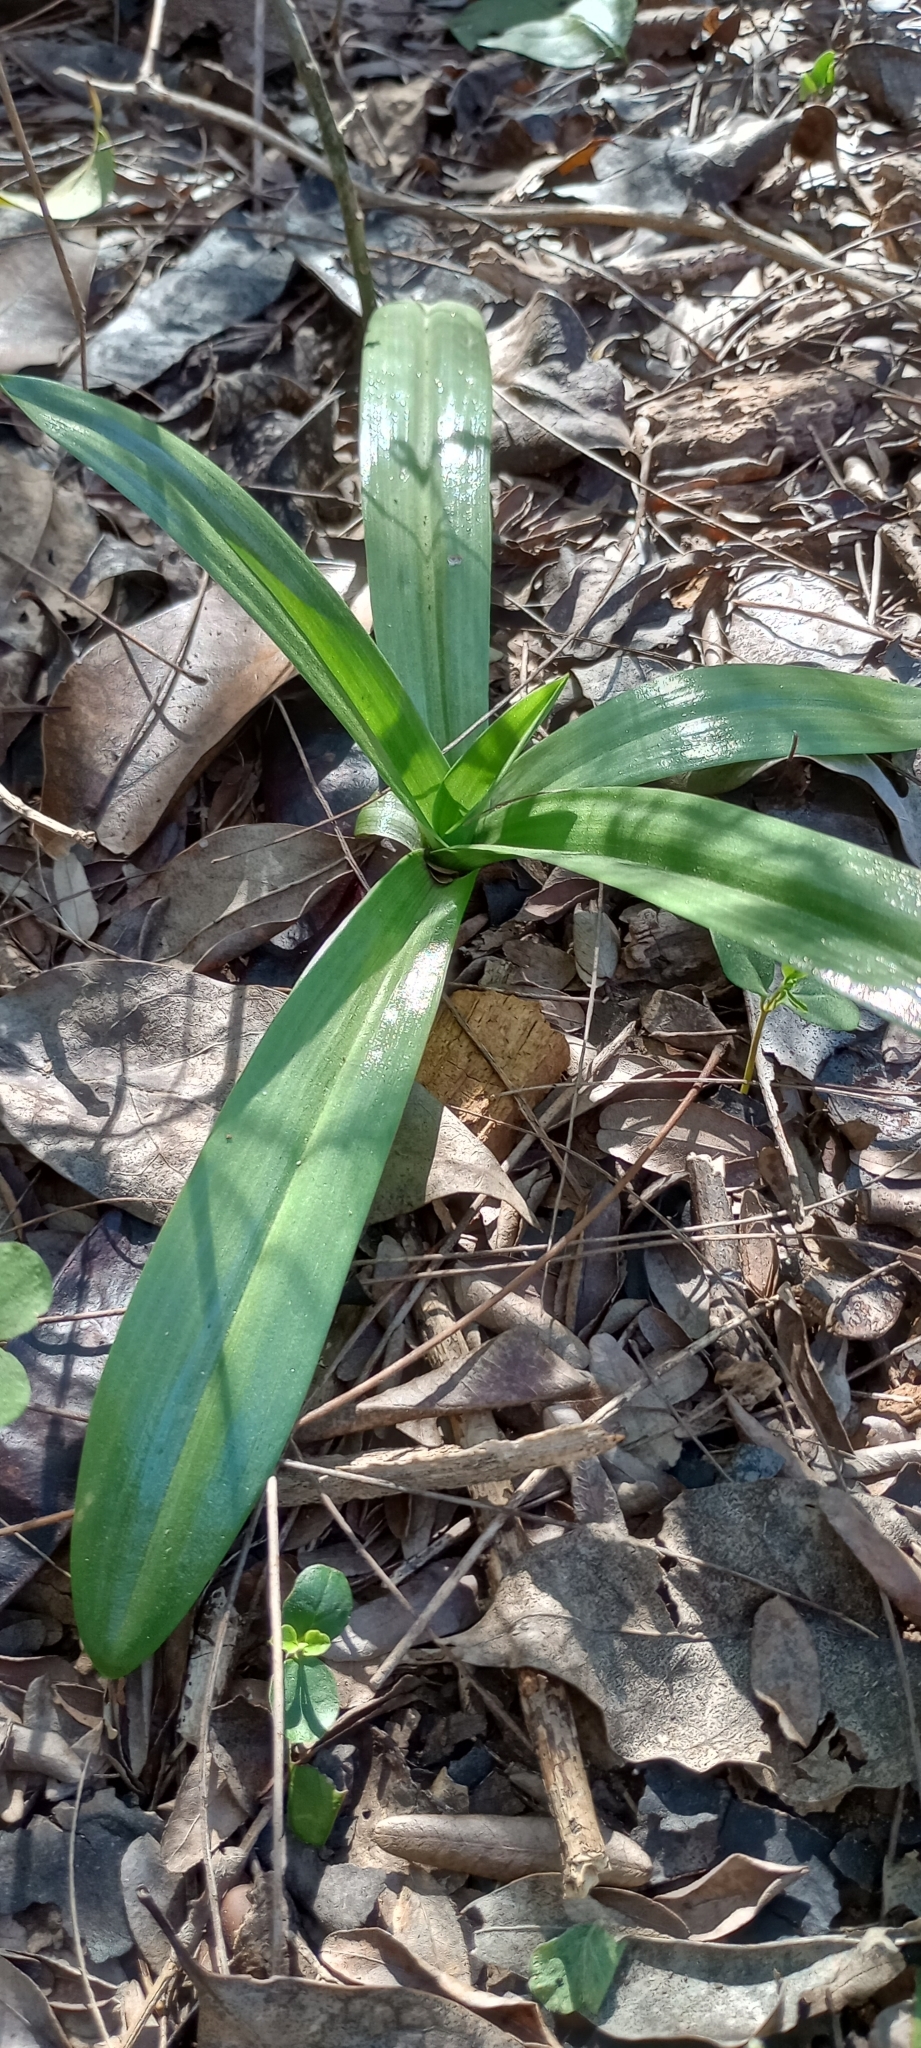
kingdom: Plantae
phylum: Tracheophyta
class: Liliopsida
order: Asparagales
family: Orchidaceae
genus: Chloraea
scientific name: Chloraea membranacea
